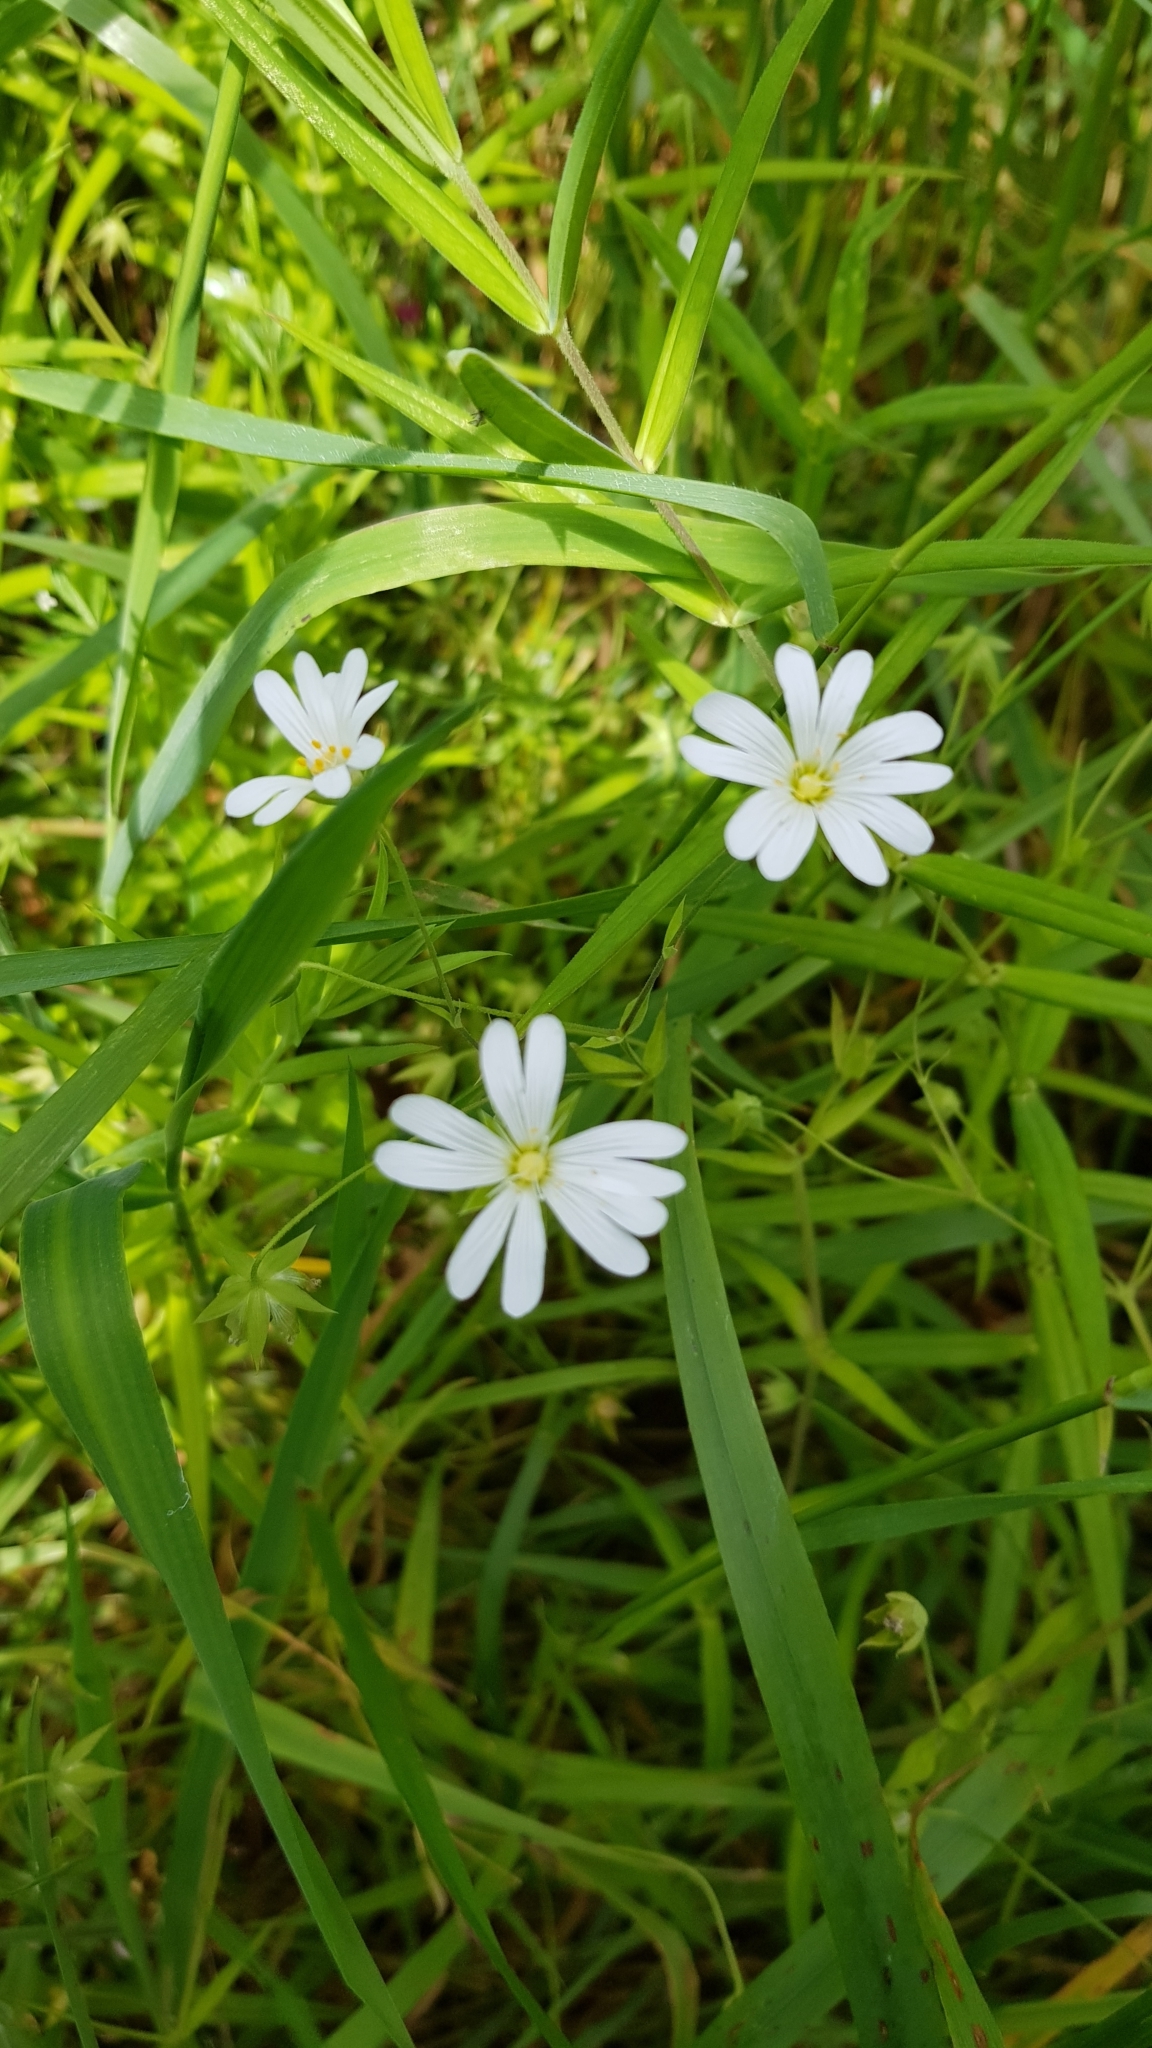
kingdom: Plantae
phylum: Tracheophyta
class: Magnoliopsida
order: Caryophyllales
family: Caryophyllaceae
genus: Rabelera
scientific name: Rabelera holostea
